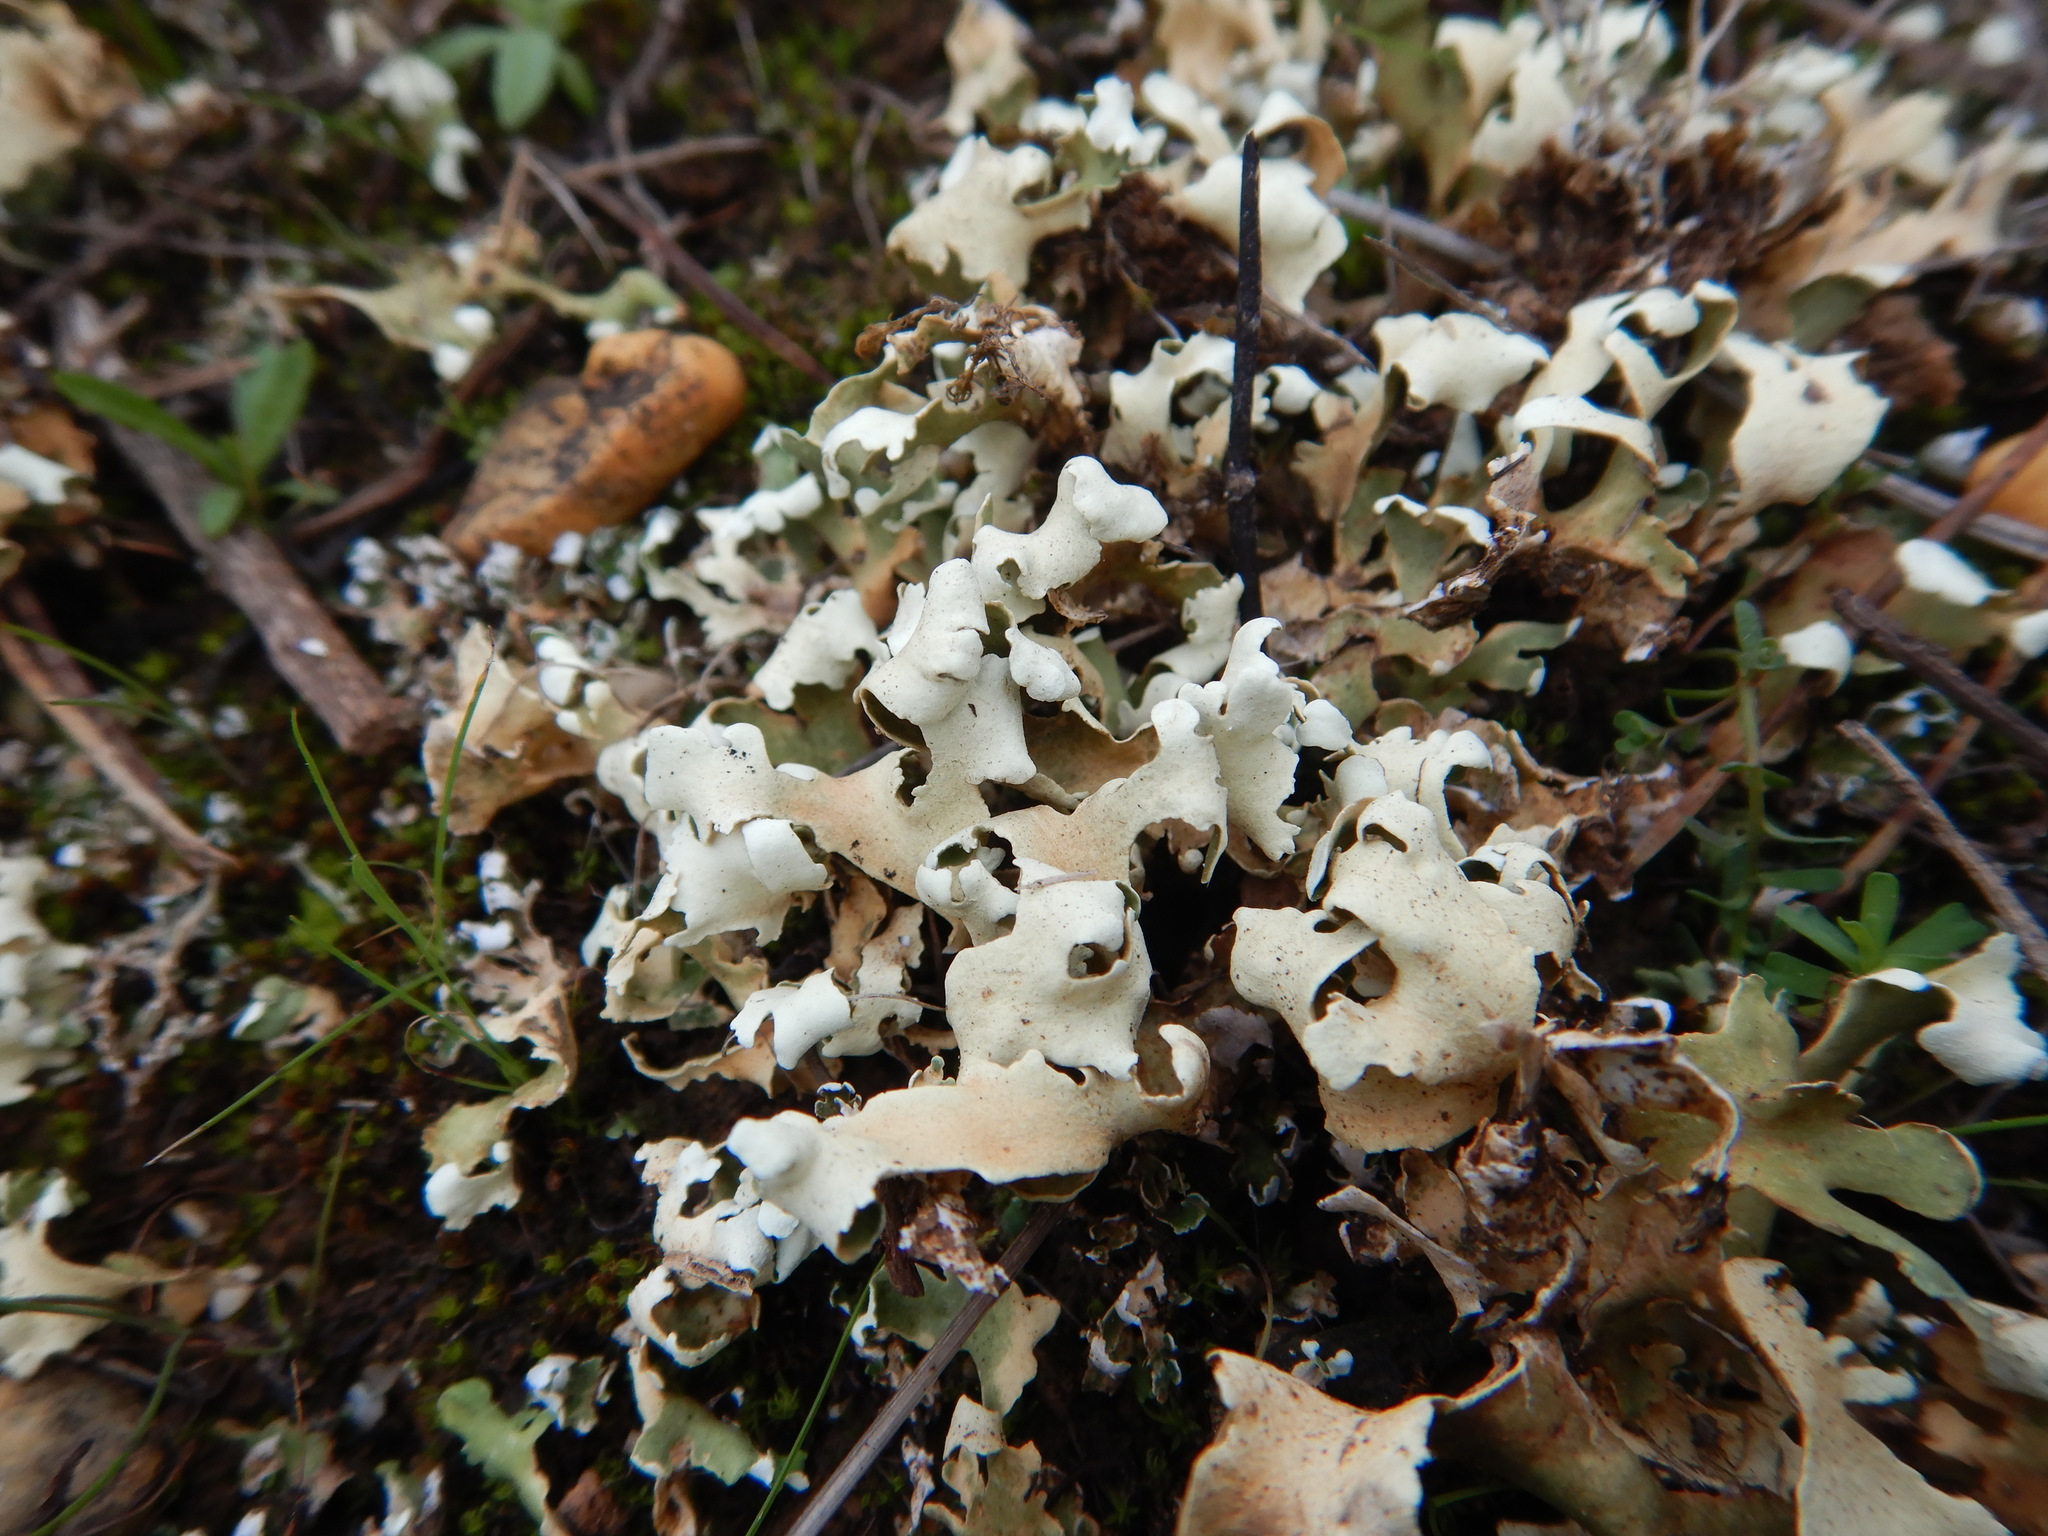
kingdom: Fungi
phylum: Ascomycota
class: Lecanoromycetes
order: Lecanorales
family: Cladoniaceae
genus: Cladonia
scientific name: Cladonia foliacea
